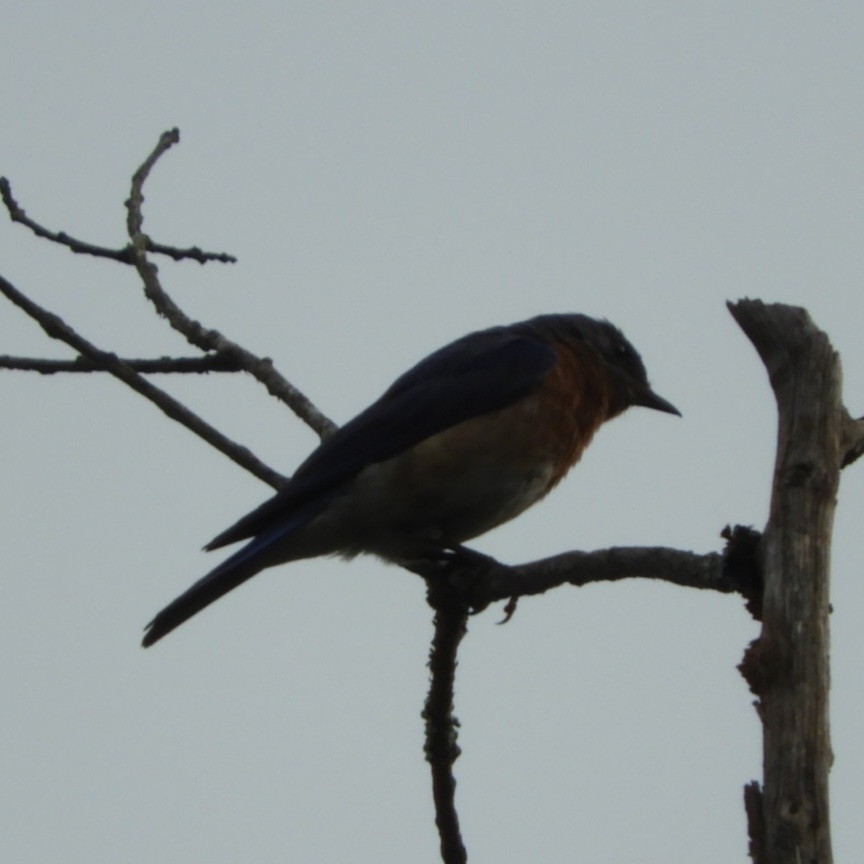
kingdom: Animalia
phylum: Chordata
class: Aves
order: Passeriformes
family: Turdidae
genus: Sialia
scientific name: Sialia sialis
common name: Eastern bluebird
